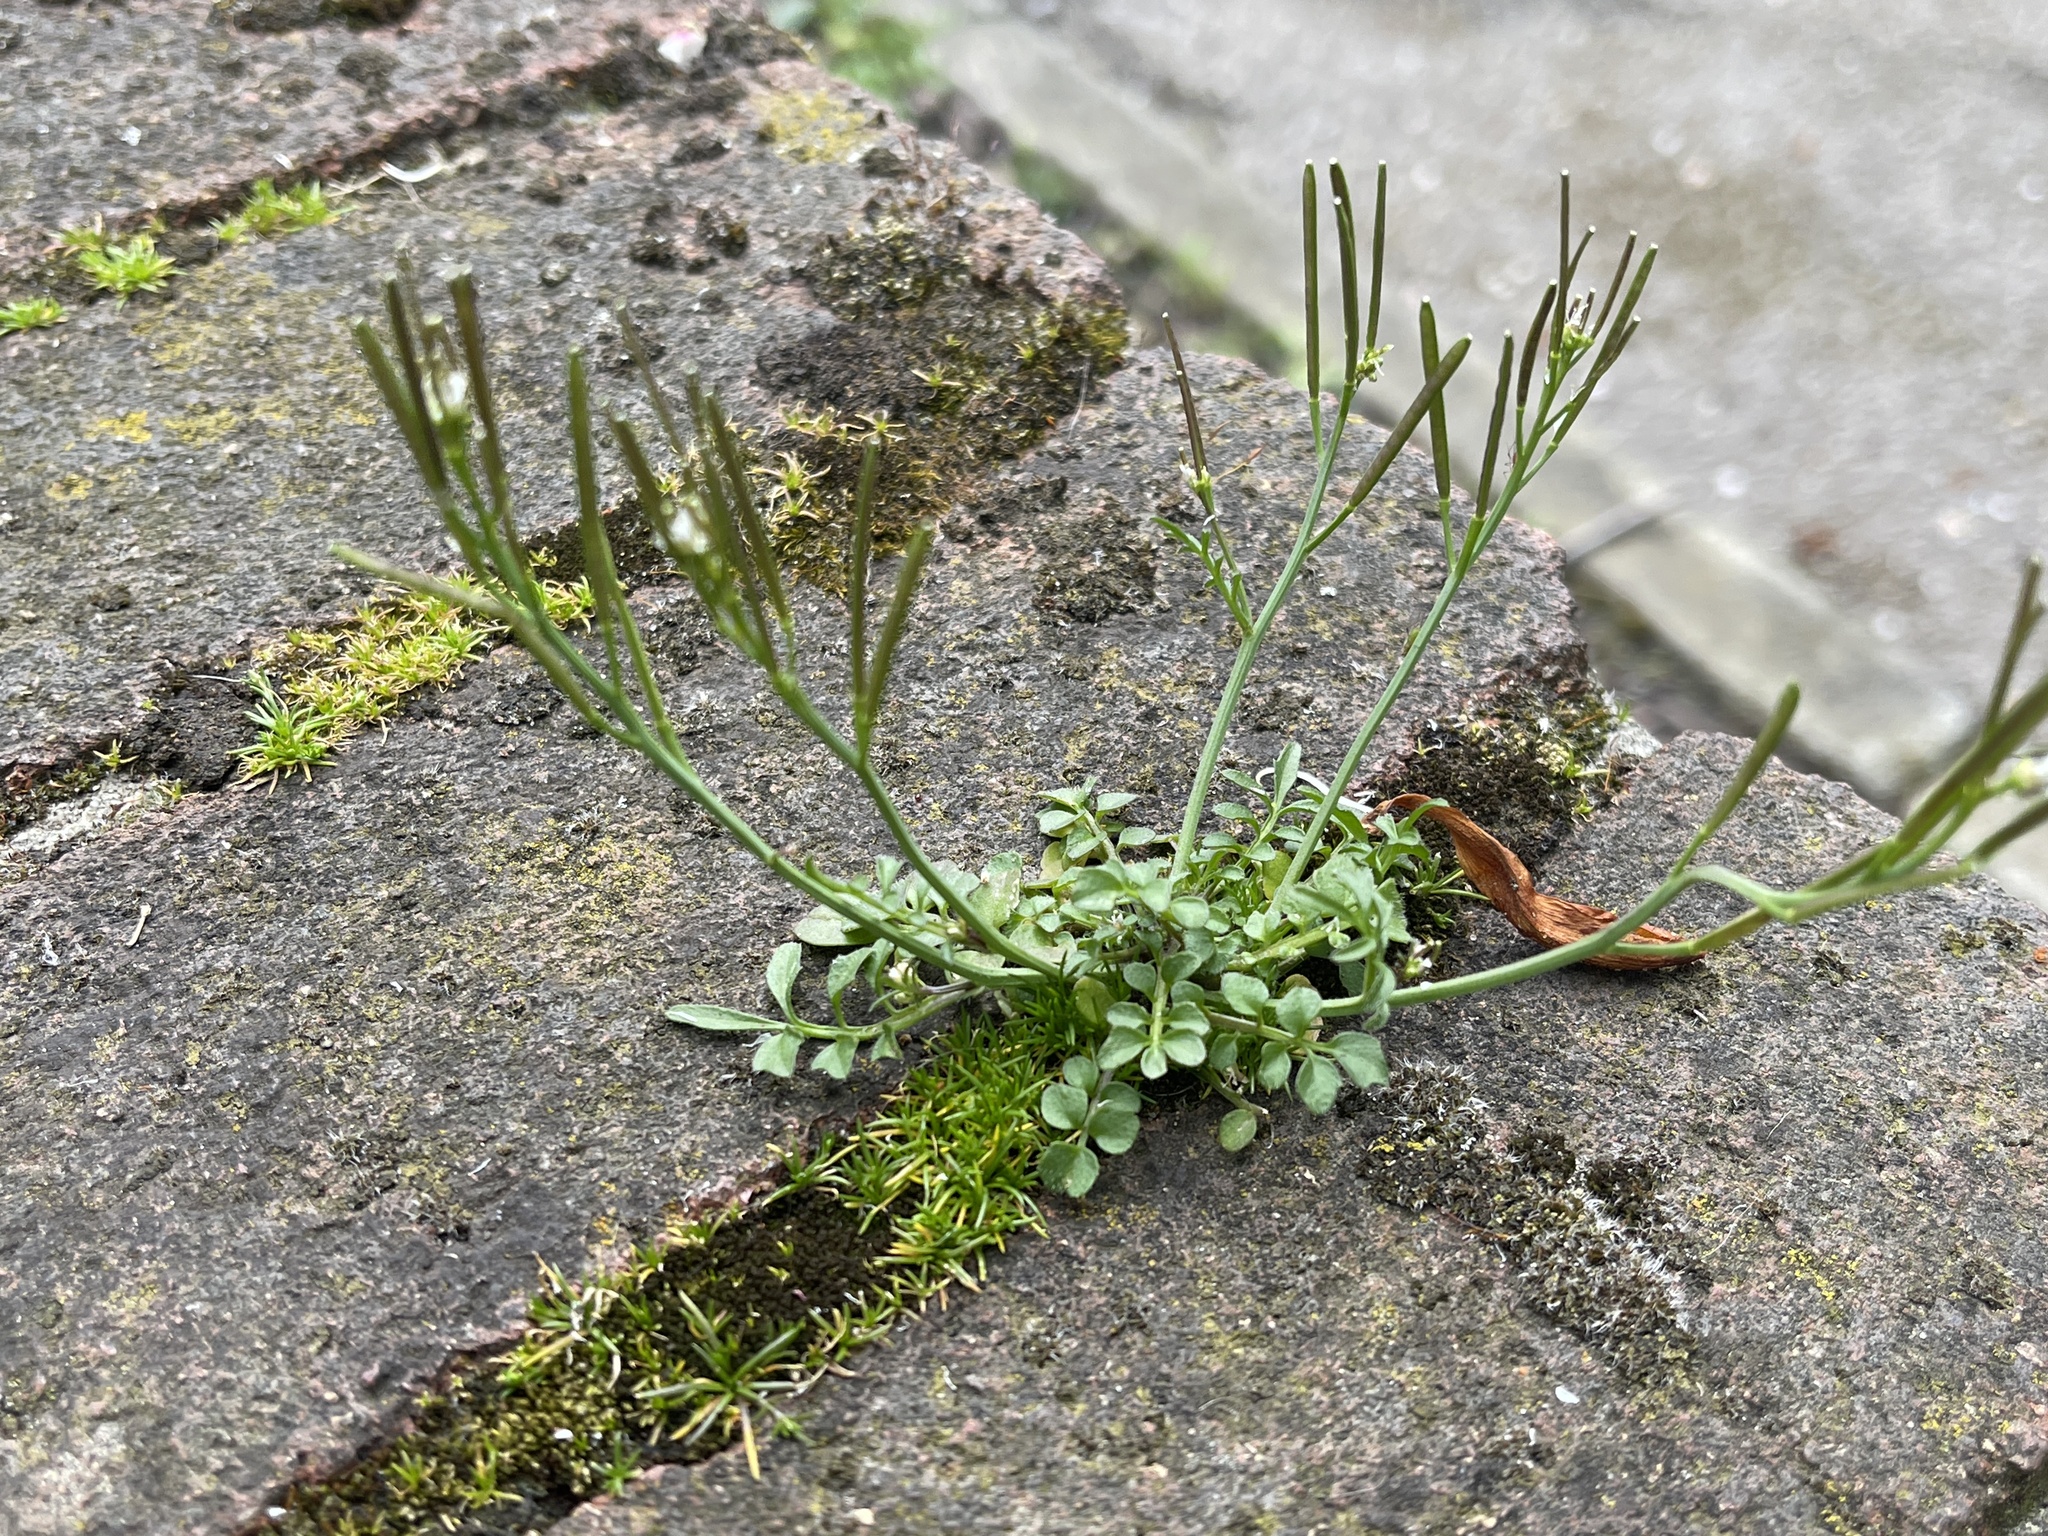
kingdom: Plantae
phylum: Tracheophyta
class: Magnoliopsida
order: Brassicales
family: Brassicaceae
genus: Cardamine
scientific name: Cardamine hirsuta
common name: Hairy bittercress
